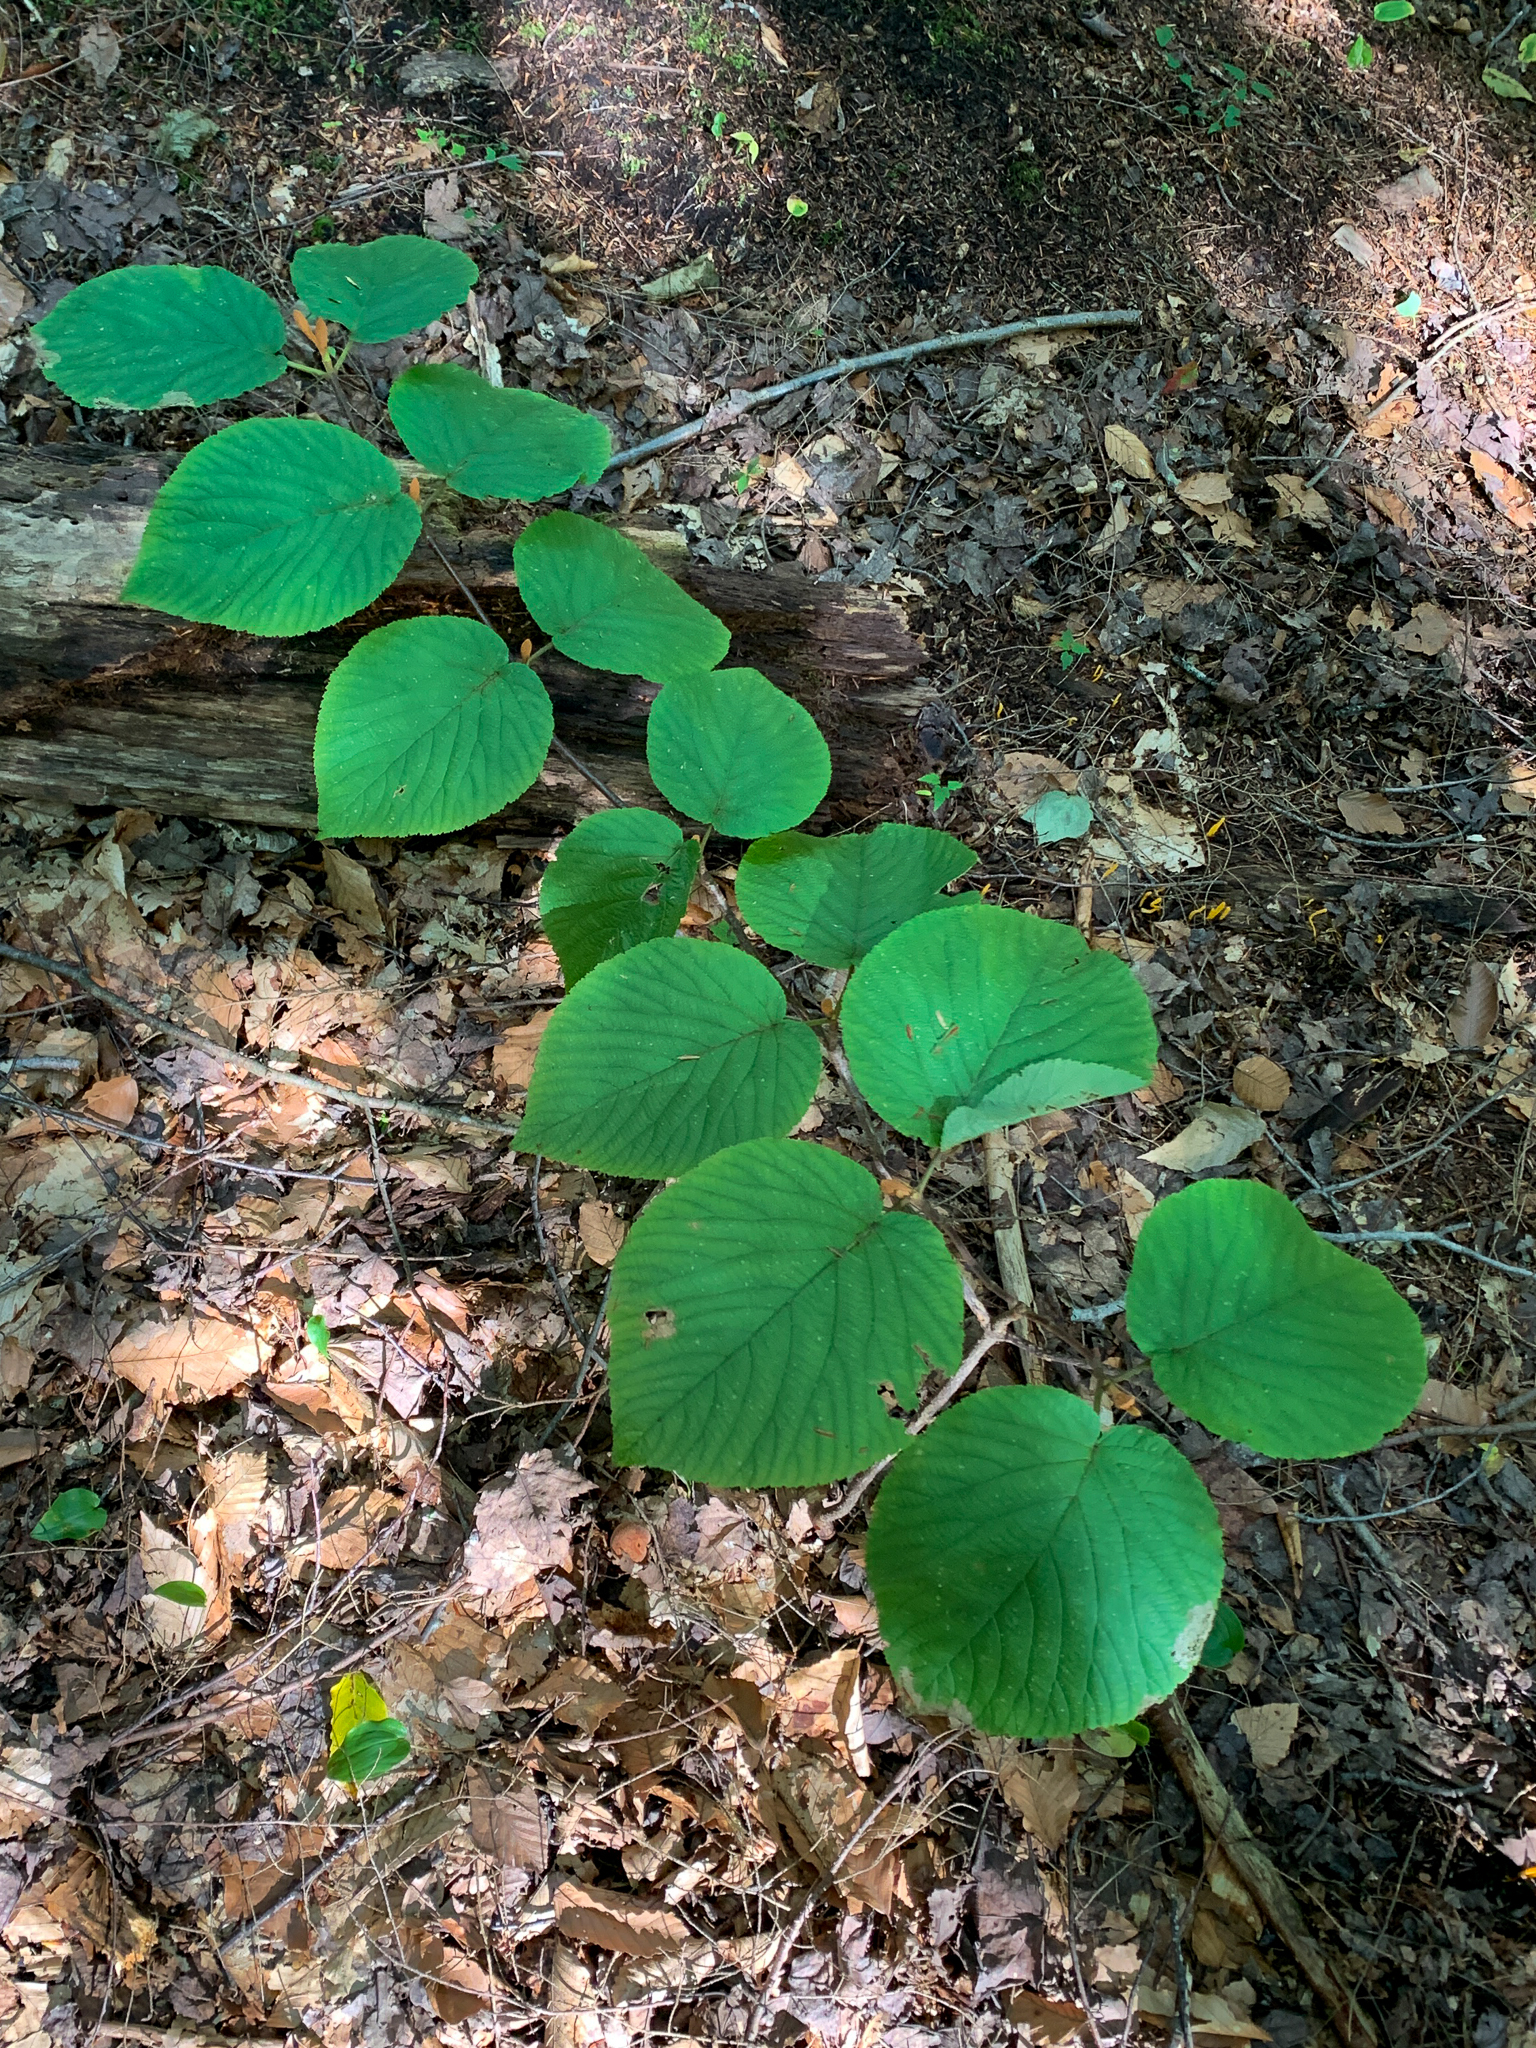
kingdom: Plantae
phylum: Tracheophyta
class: Magnoliopsida
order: Dipsacales
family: Viburnaceae
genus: Viburnum
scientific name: Viburnum lantanoides
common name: Hobblebush
